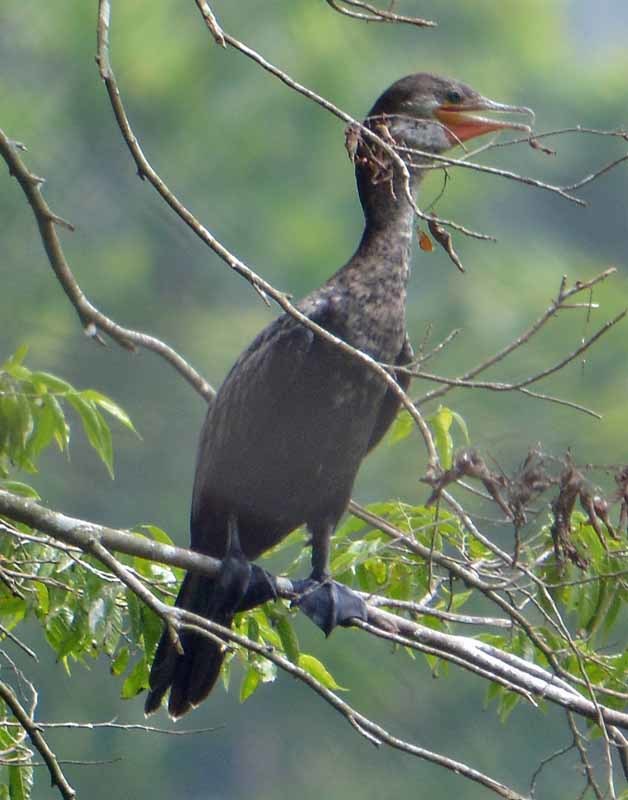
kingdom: Animalia
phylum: Chordata
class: Aves
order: Suliformes
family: Phalacrocoracidae
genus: Phalacrocorax
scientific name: Phalacrocorax brasilianus
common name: Neotropic cormorant
